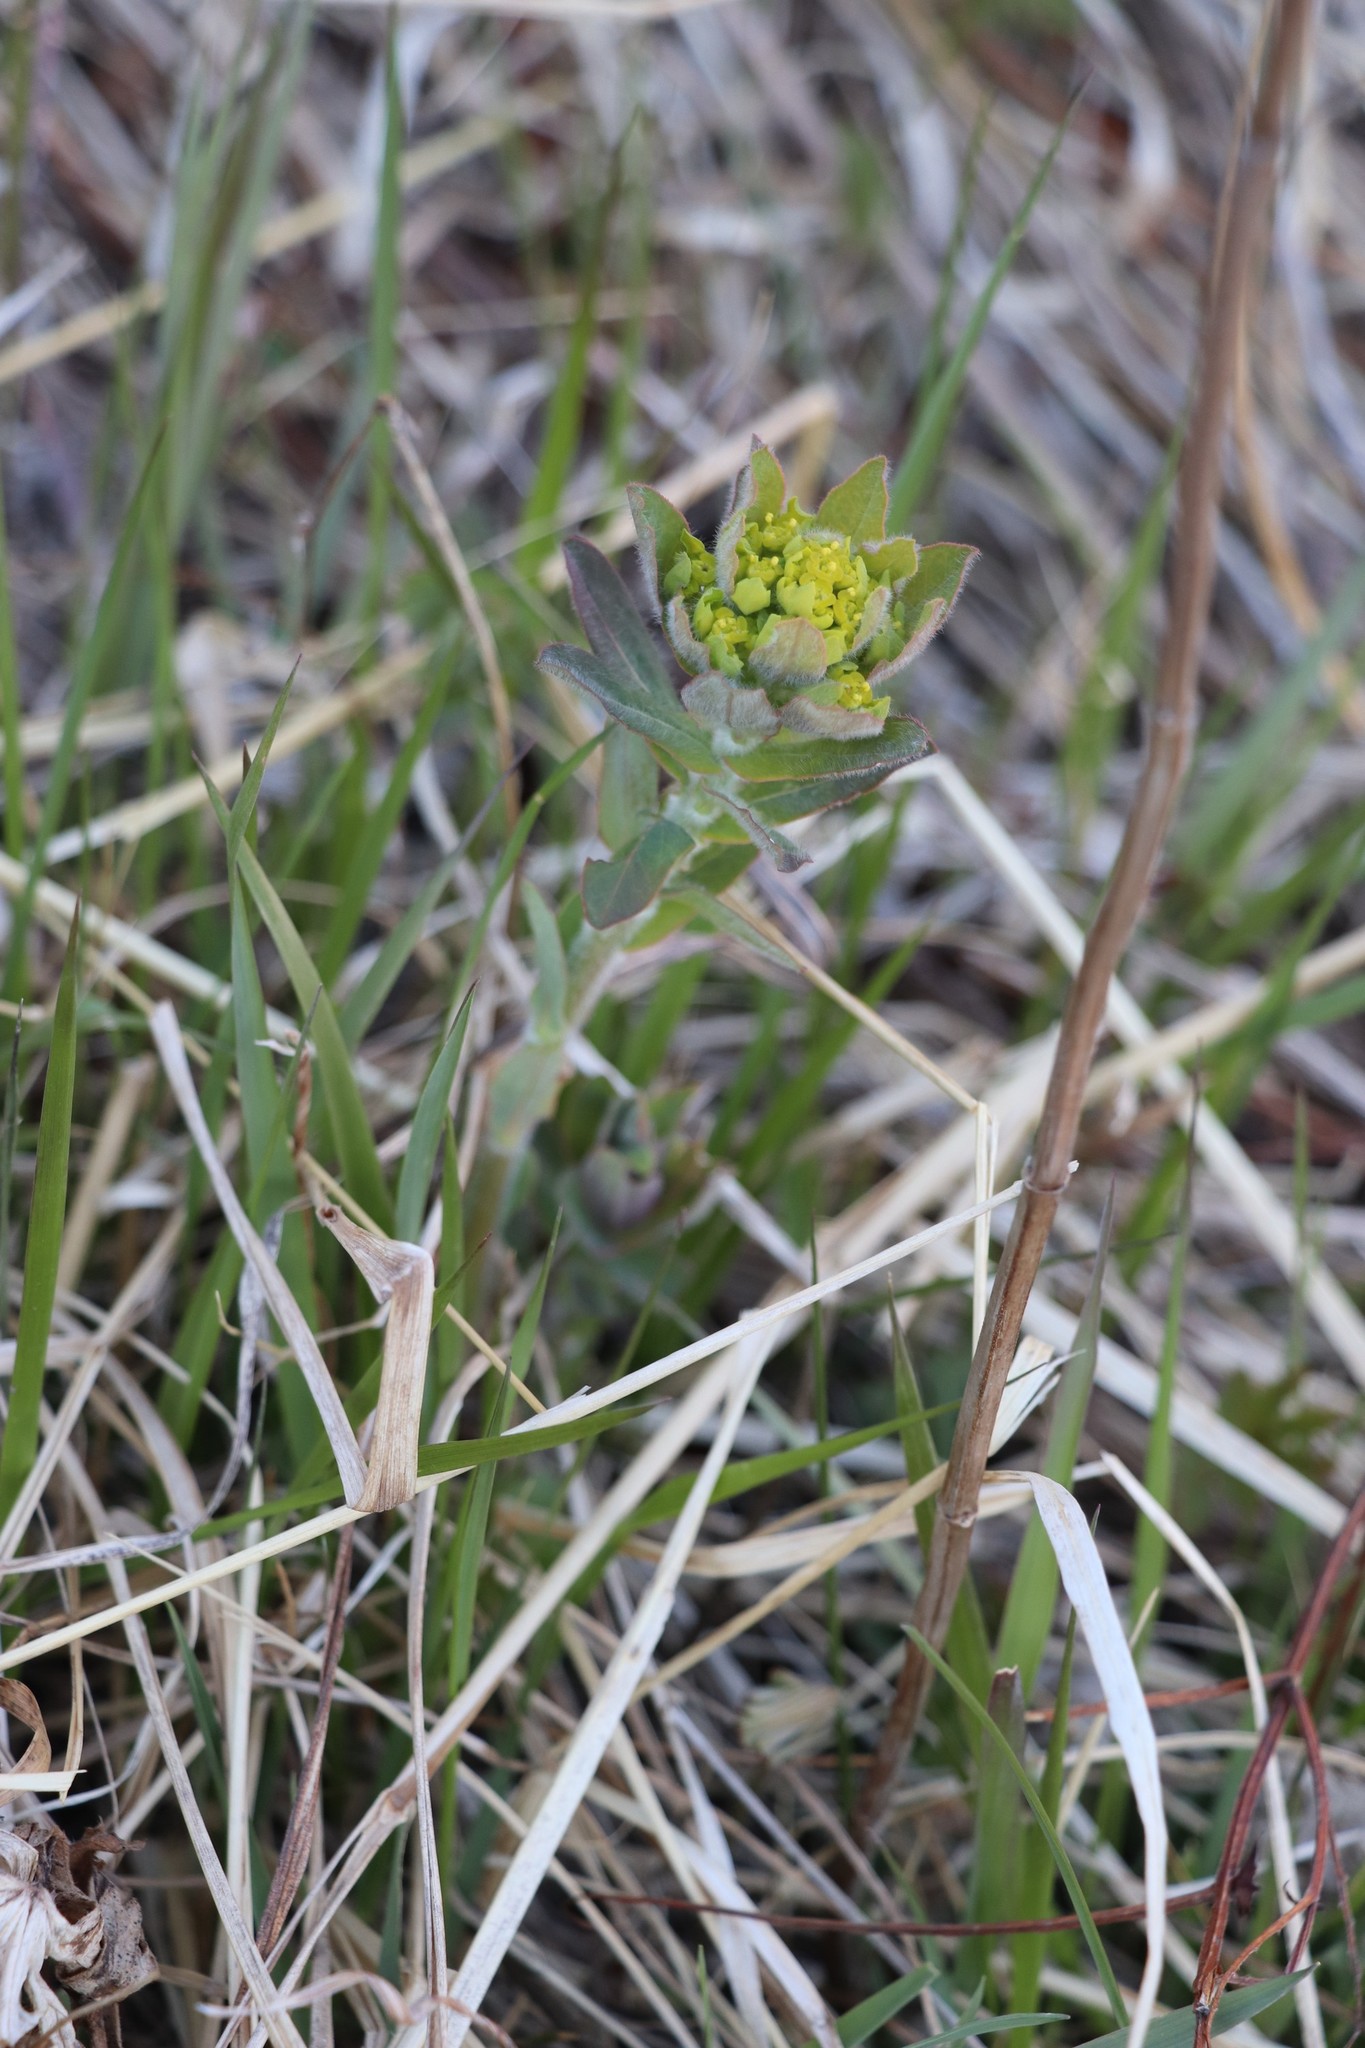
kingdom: Plantae
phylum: Tracheophyta
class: Magnoliopsida
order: Malpighiales
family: Euphorbiaceae
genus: Euphorbia
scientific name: Euphorbia pilosa
